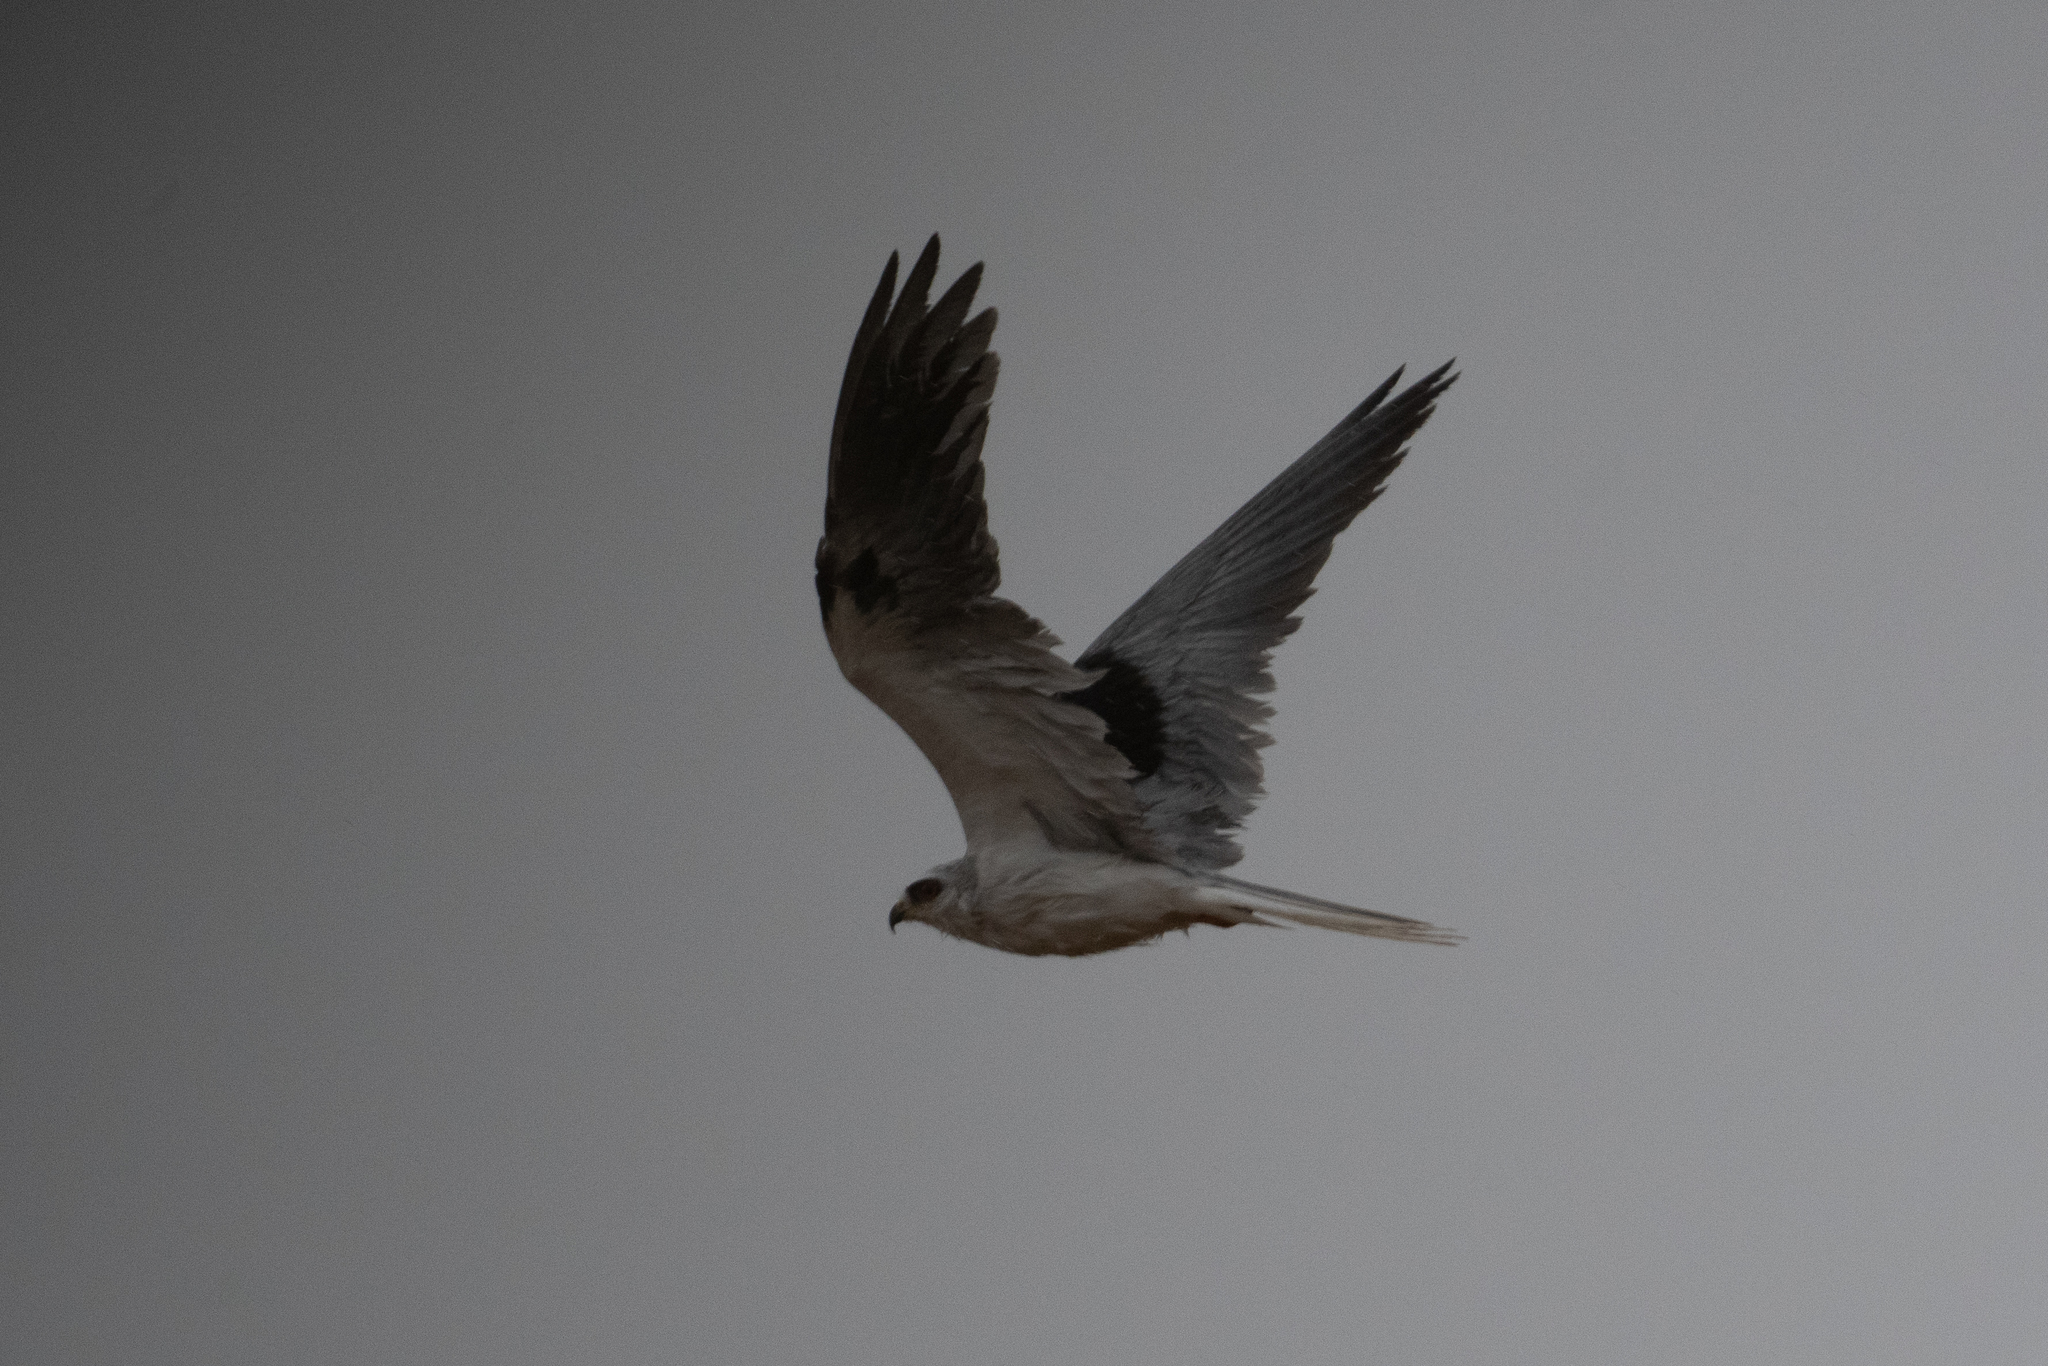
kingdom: Animalia
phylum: Chordata
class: Aves
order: Accipitriformes
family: Accipitridae
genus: Elanus
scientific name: Elanus leucurus
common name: White-tailed kite
